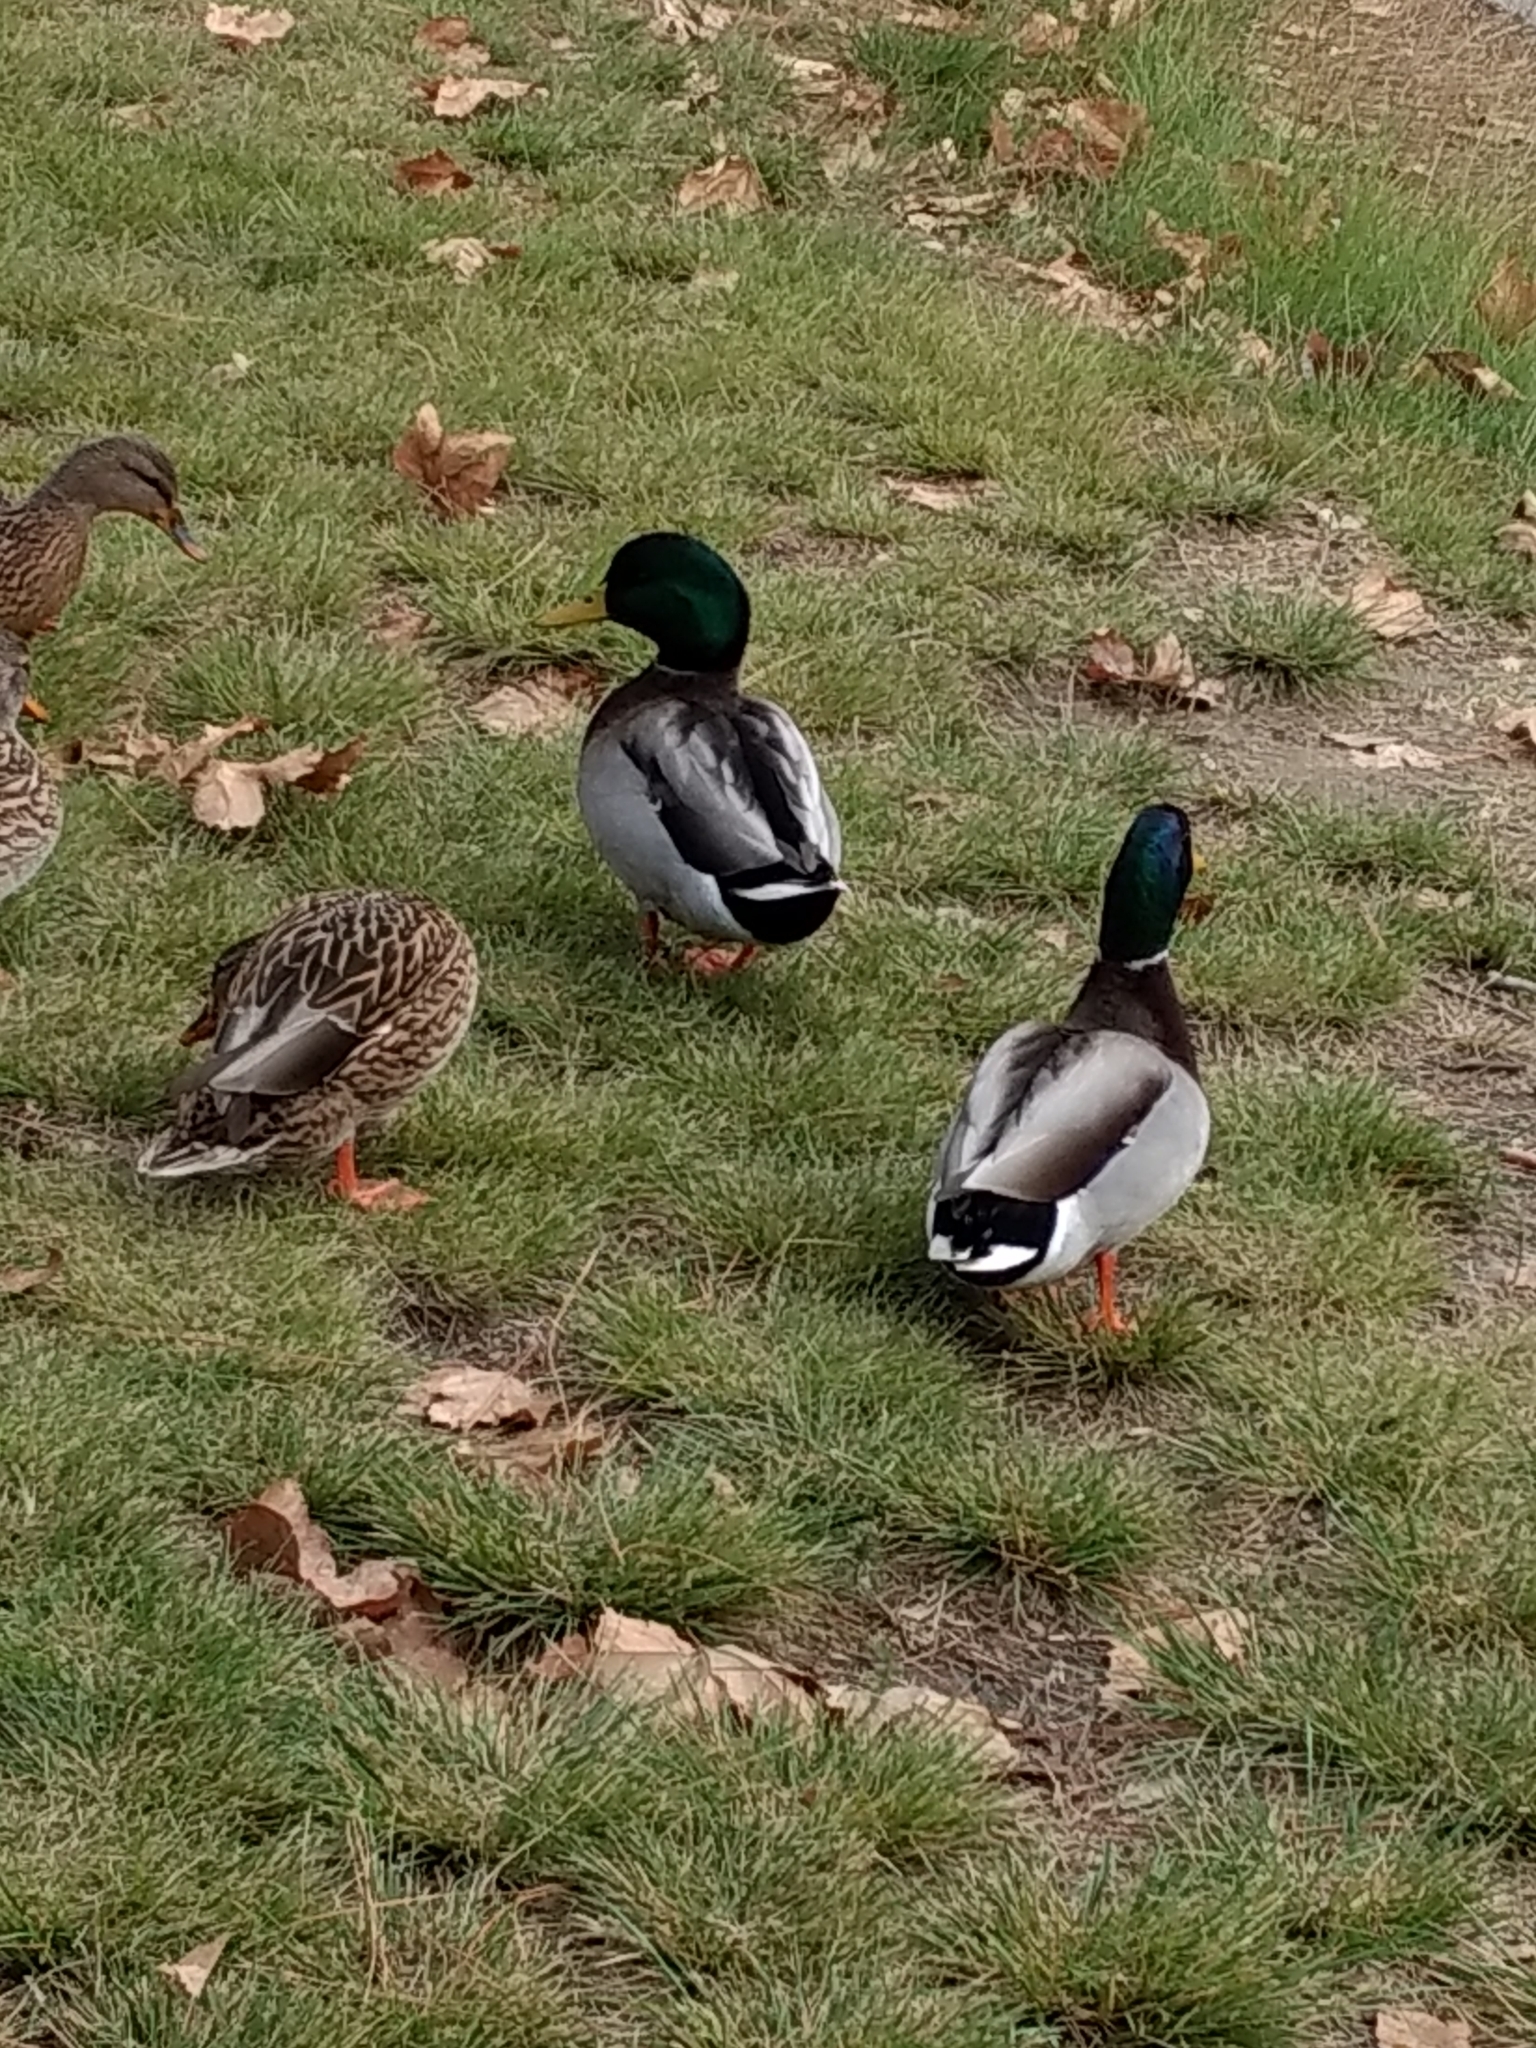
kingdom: Animalia
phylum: Chordata
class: Aves
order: Anseriformes
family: Anatidae
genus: Anas
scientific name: Anas platyrhynchos
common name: Mallard
